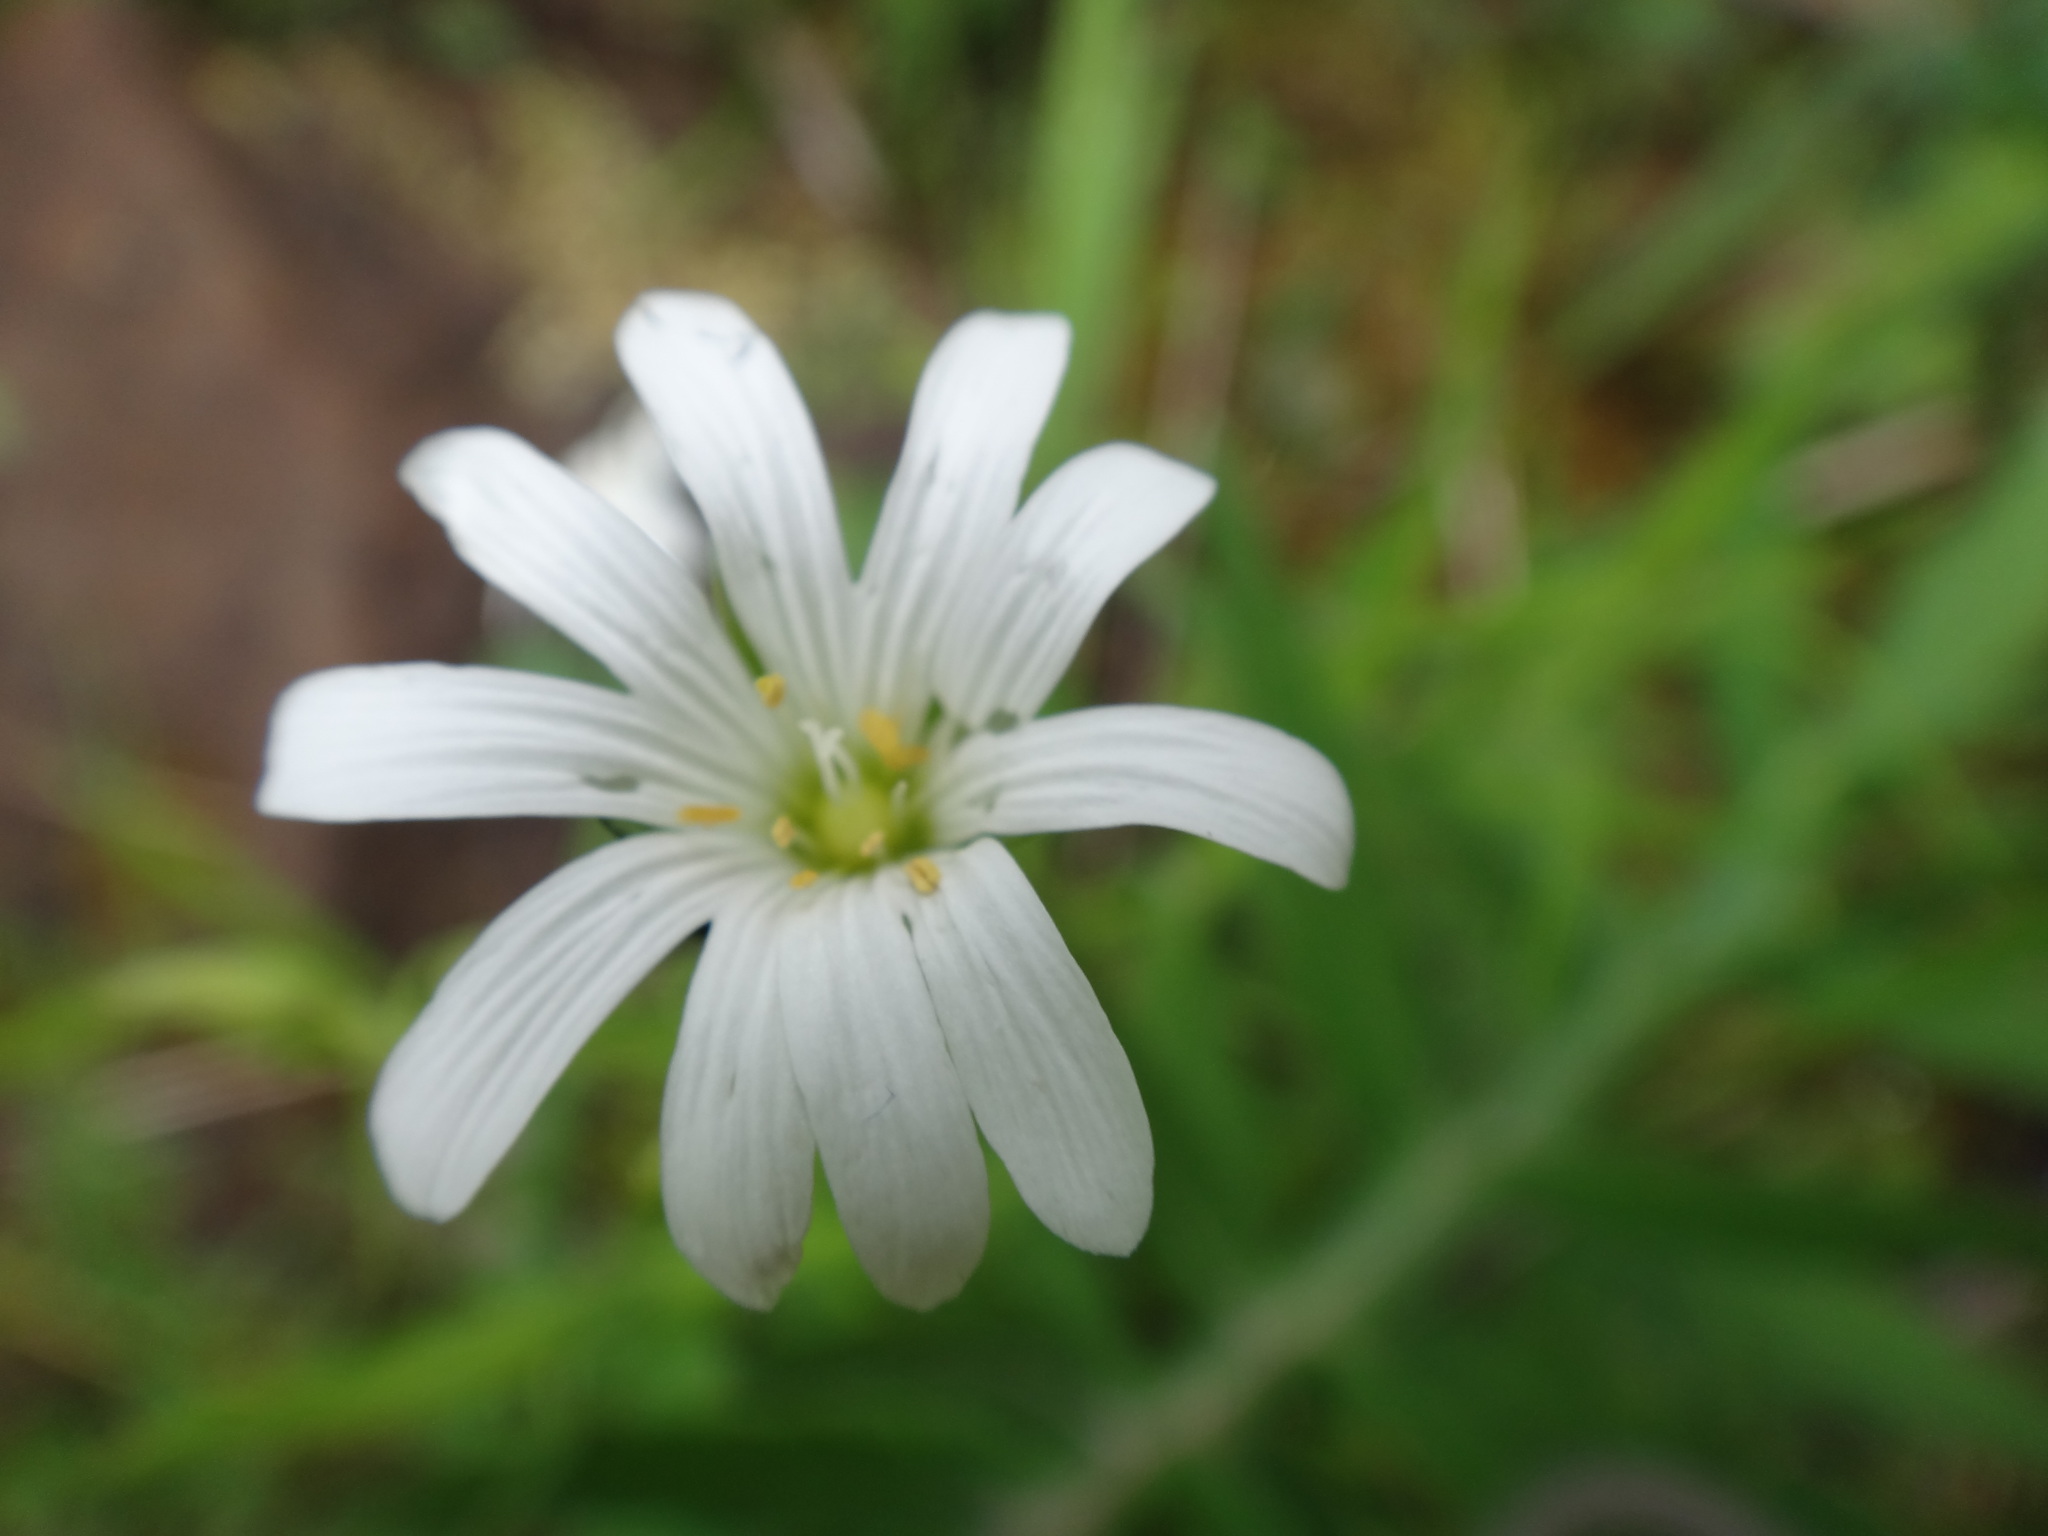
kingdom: Plantae
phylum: Tracheophyta
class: Magnoliopsida
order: Caryophyllales
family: Caryophyllaceae
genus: Rabelera
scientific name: Rabelera holostea
